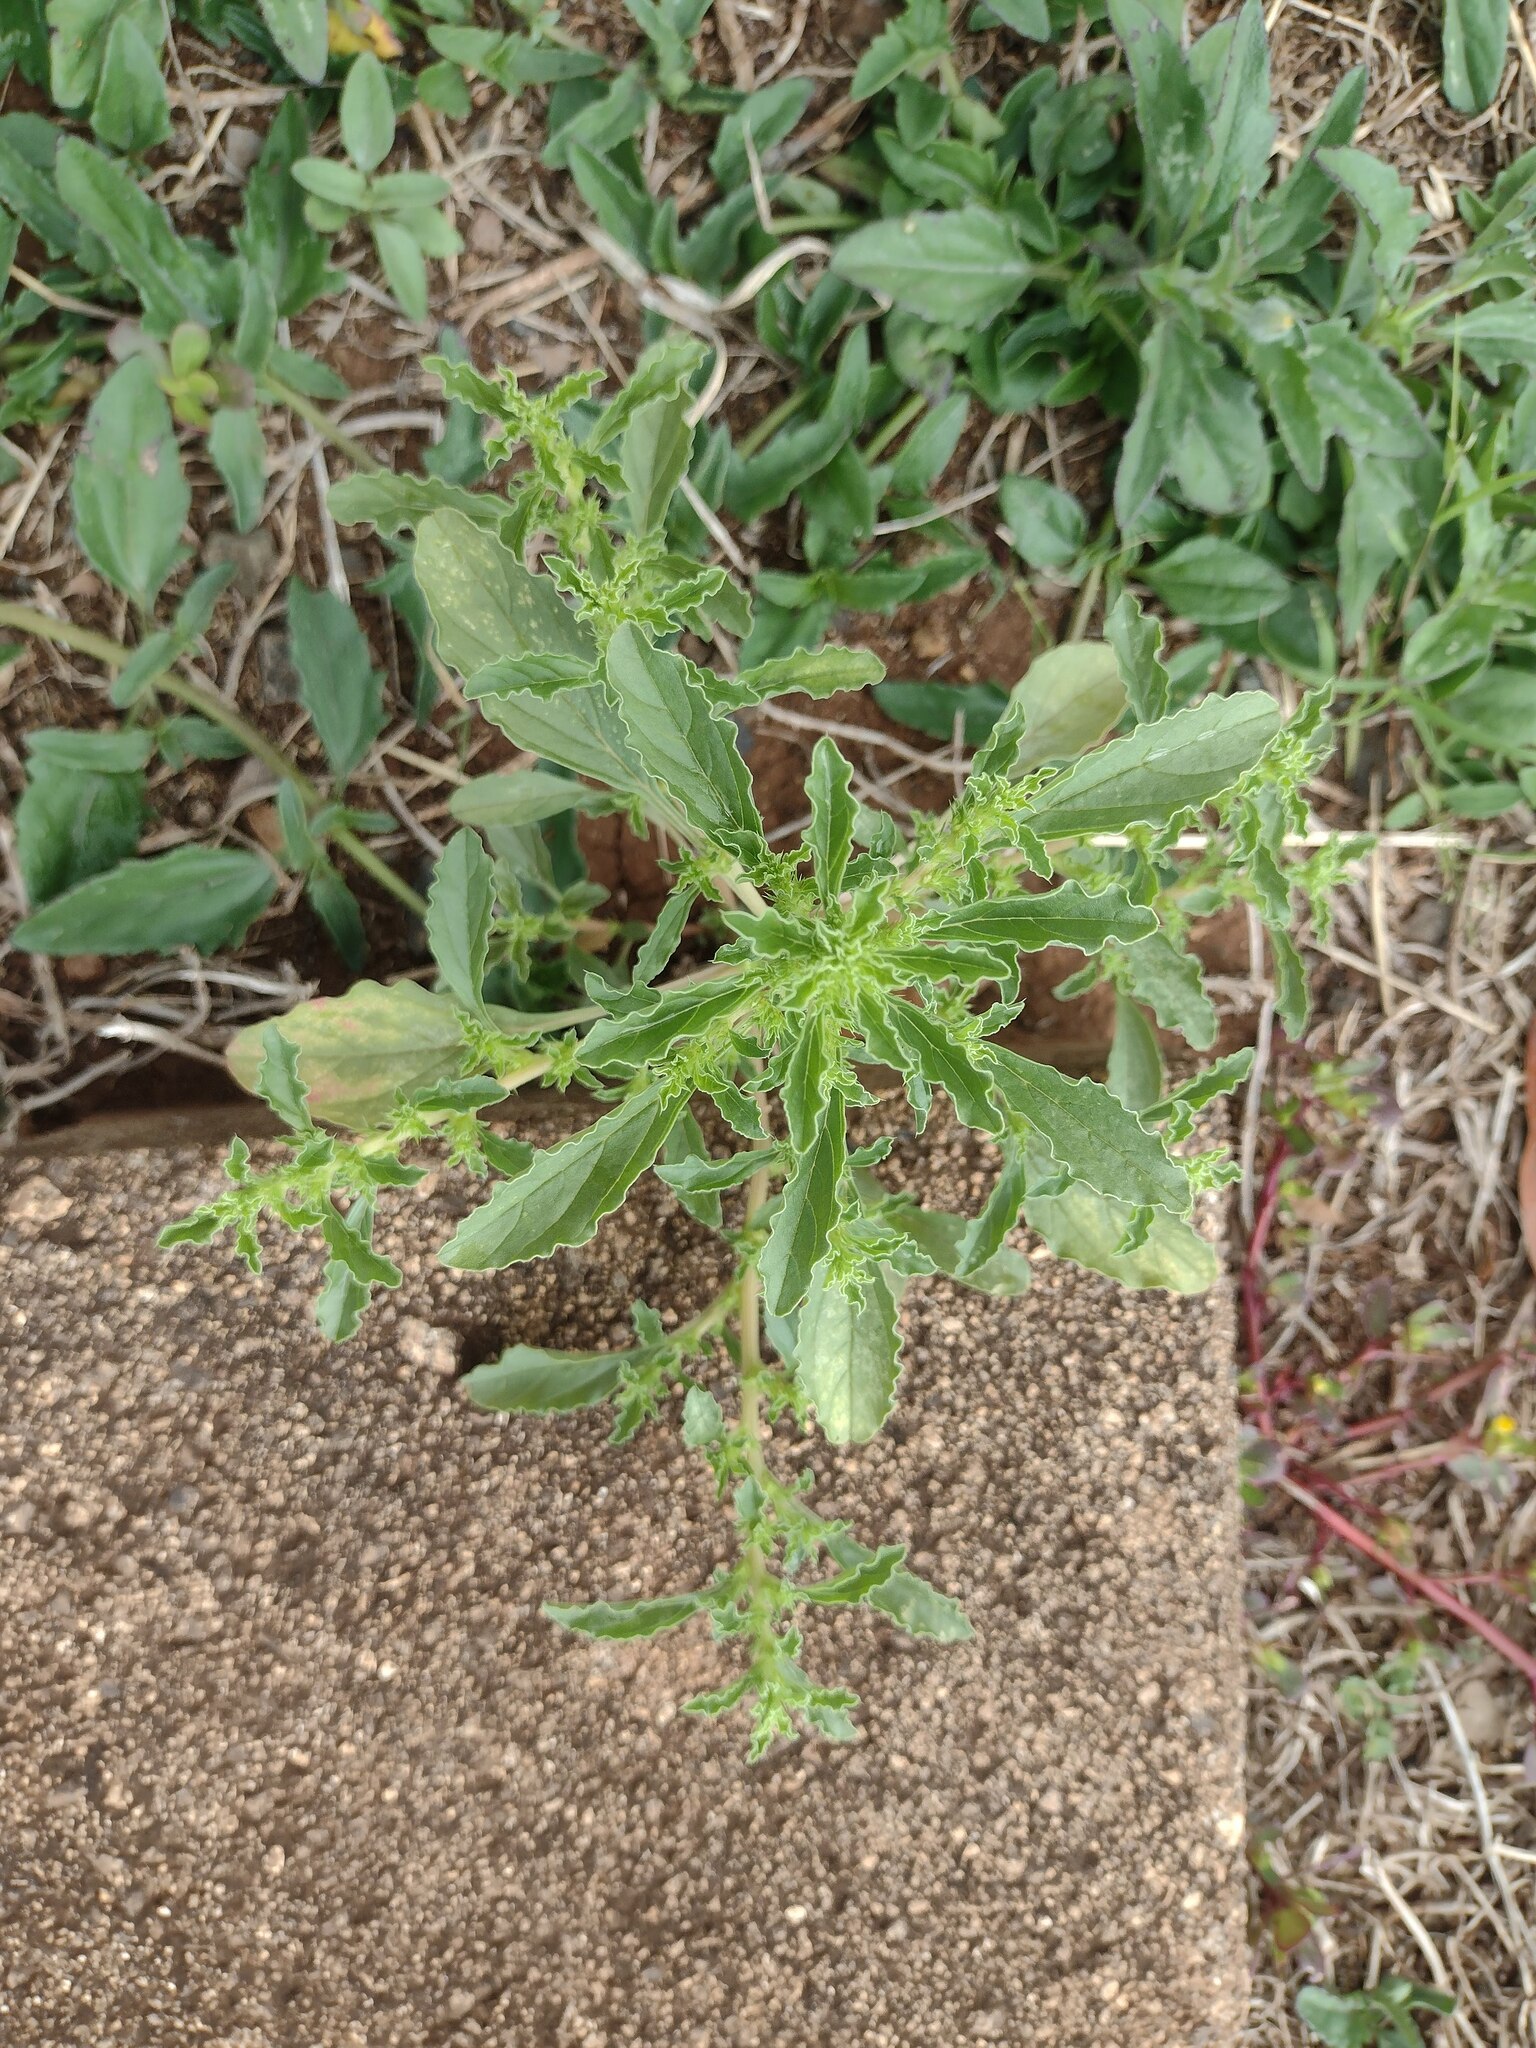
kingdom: Plantae
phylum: Tracheophyta
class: Magnoliopsida
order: Caryophyllales
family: Amaranthaceae
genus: Amaranthus
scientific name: Amaranthus albus
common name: White pigweed
